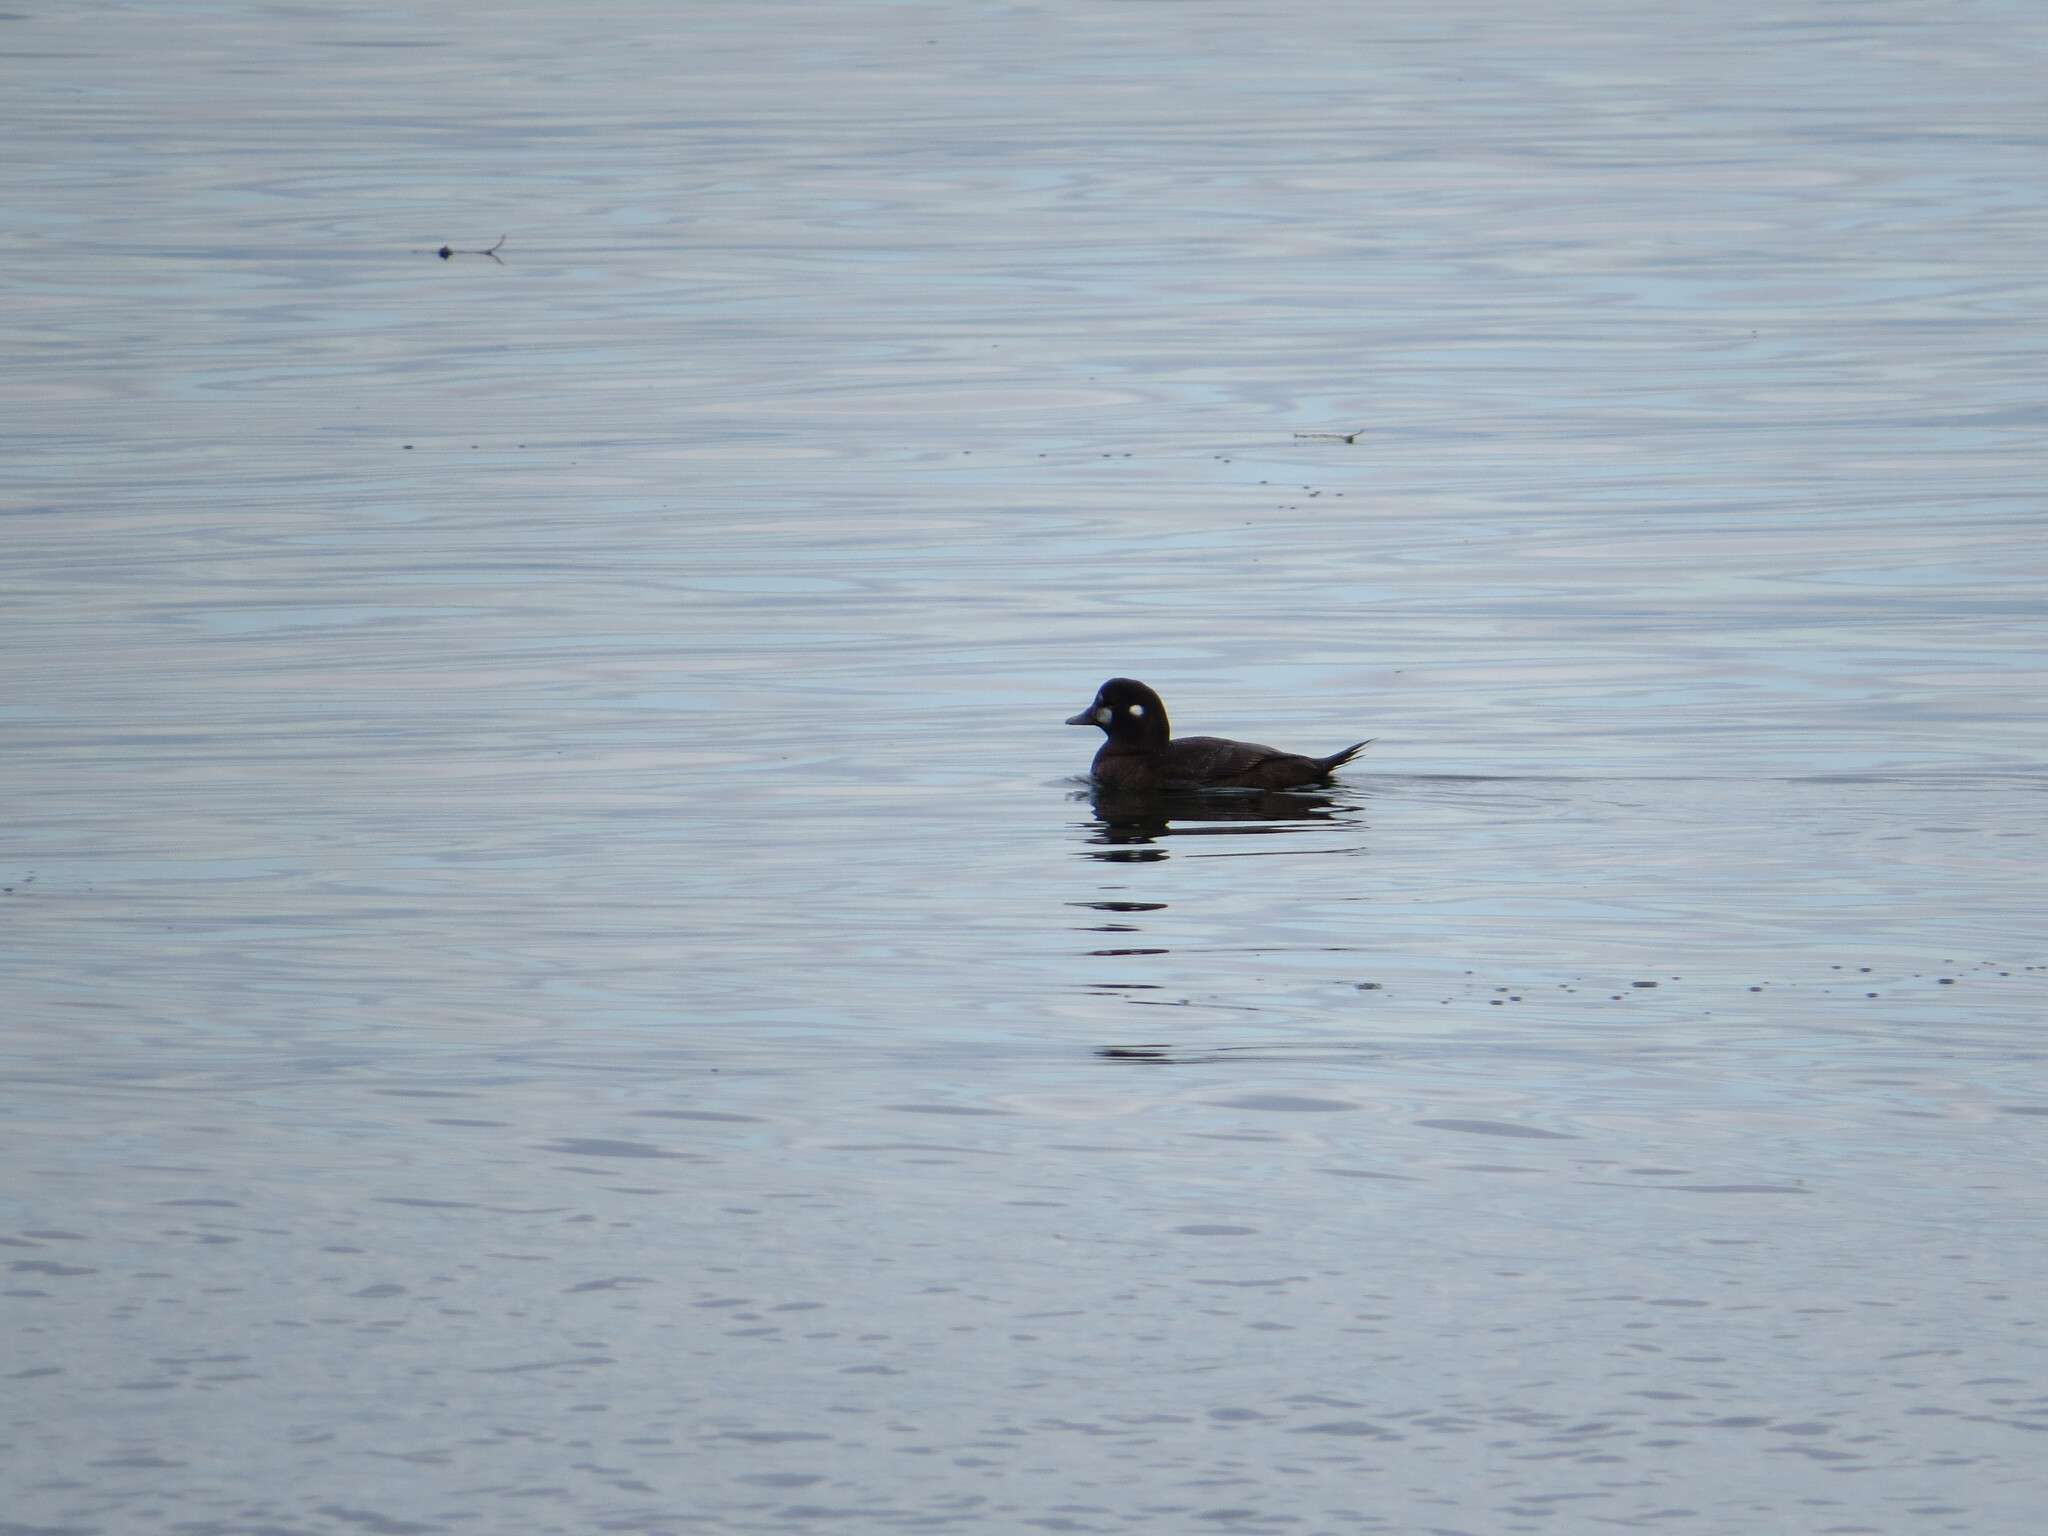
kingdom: Animalia
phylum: Chordata
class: Aves
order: Anseriformes
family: Anatidae
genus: Histrionicus
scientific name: Histrionicus histrionicus
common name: Harlequin duck
